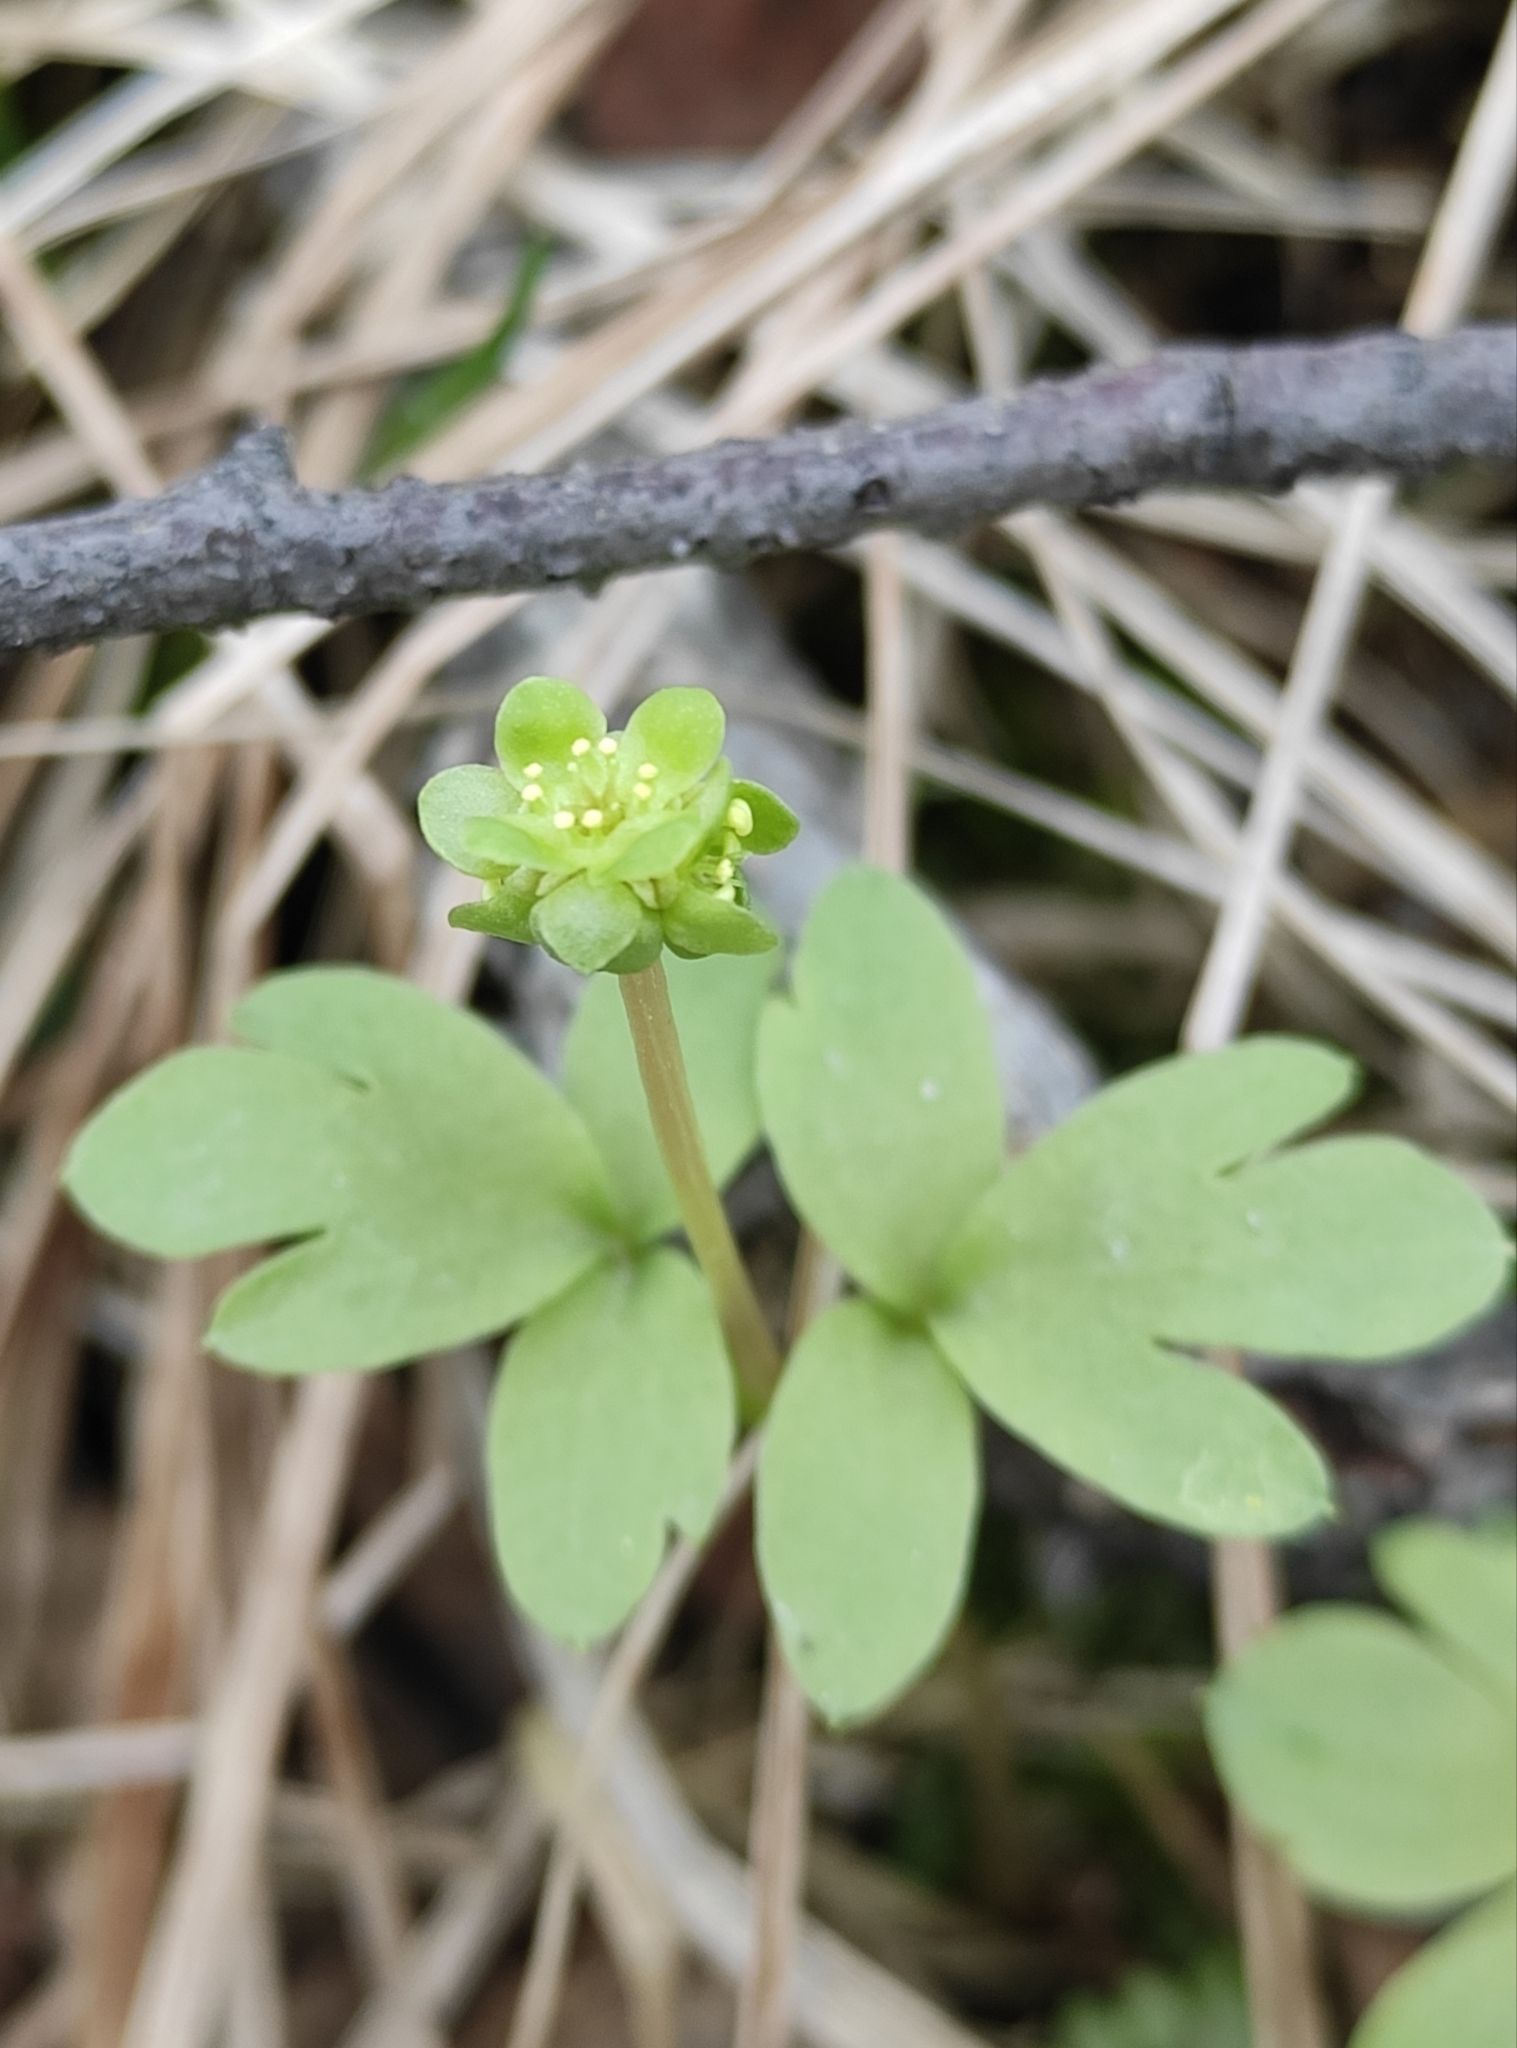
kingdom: Plantae
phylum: Tracheophyta
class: Magnoliopsida
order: Dipsacales
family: Viburnaceae
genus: Adoxa
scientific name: Adoxa moschatellina
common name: Moschatel
